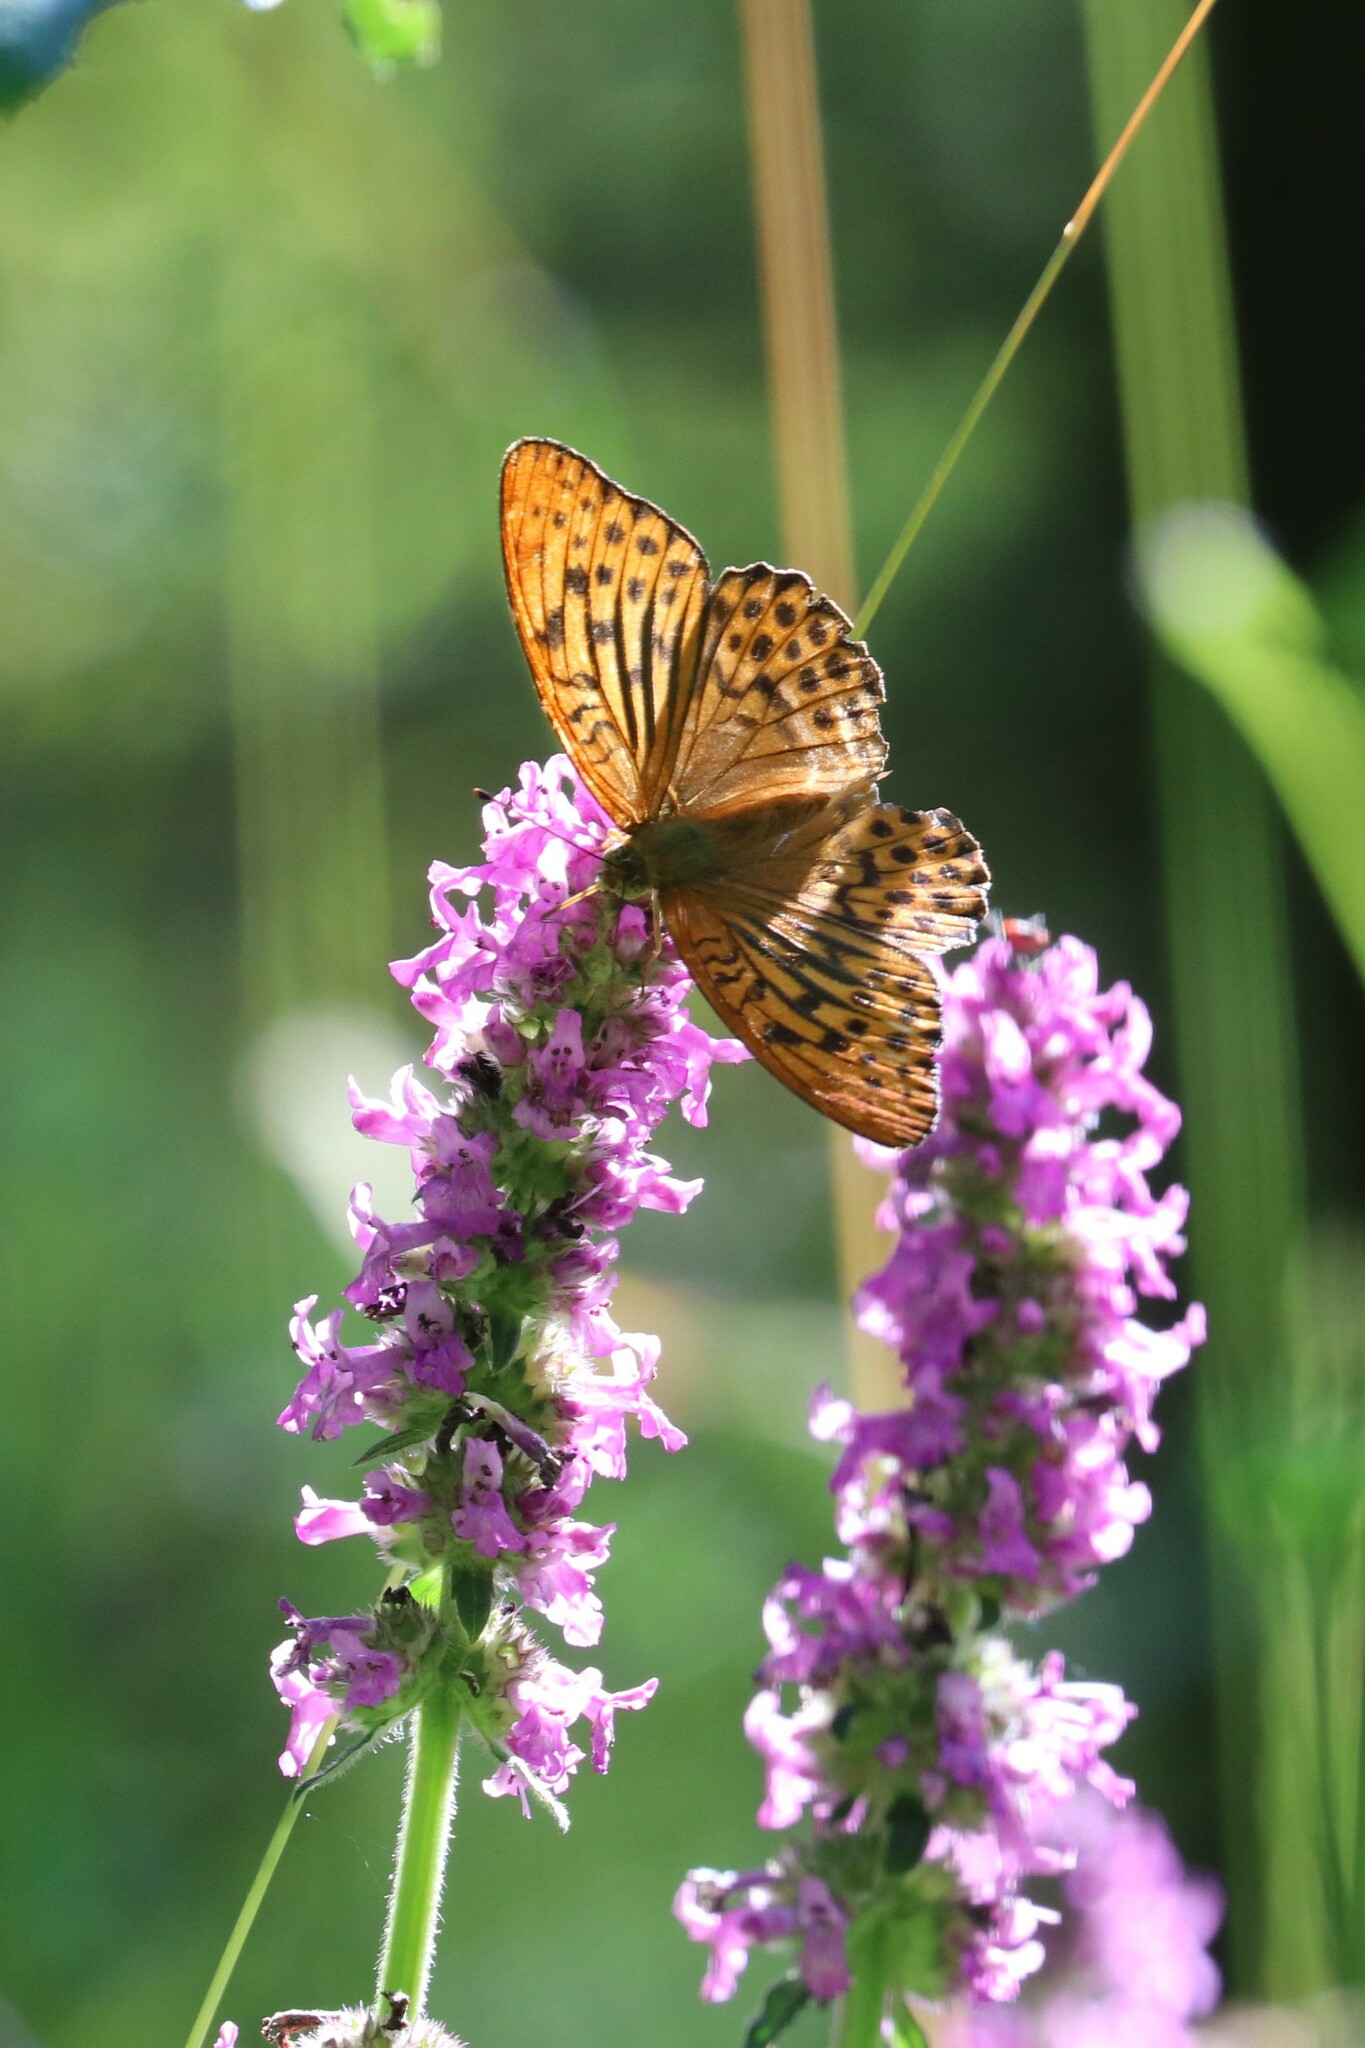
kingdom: Animalia
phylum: Arthropoda
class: Insecta
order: Lepidoptera
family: Nymphalidae
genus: Argynnis
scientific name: Argynnis paphia
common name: Silver-washed fritillary
